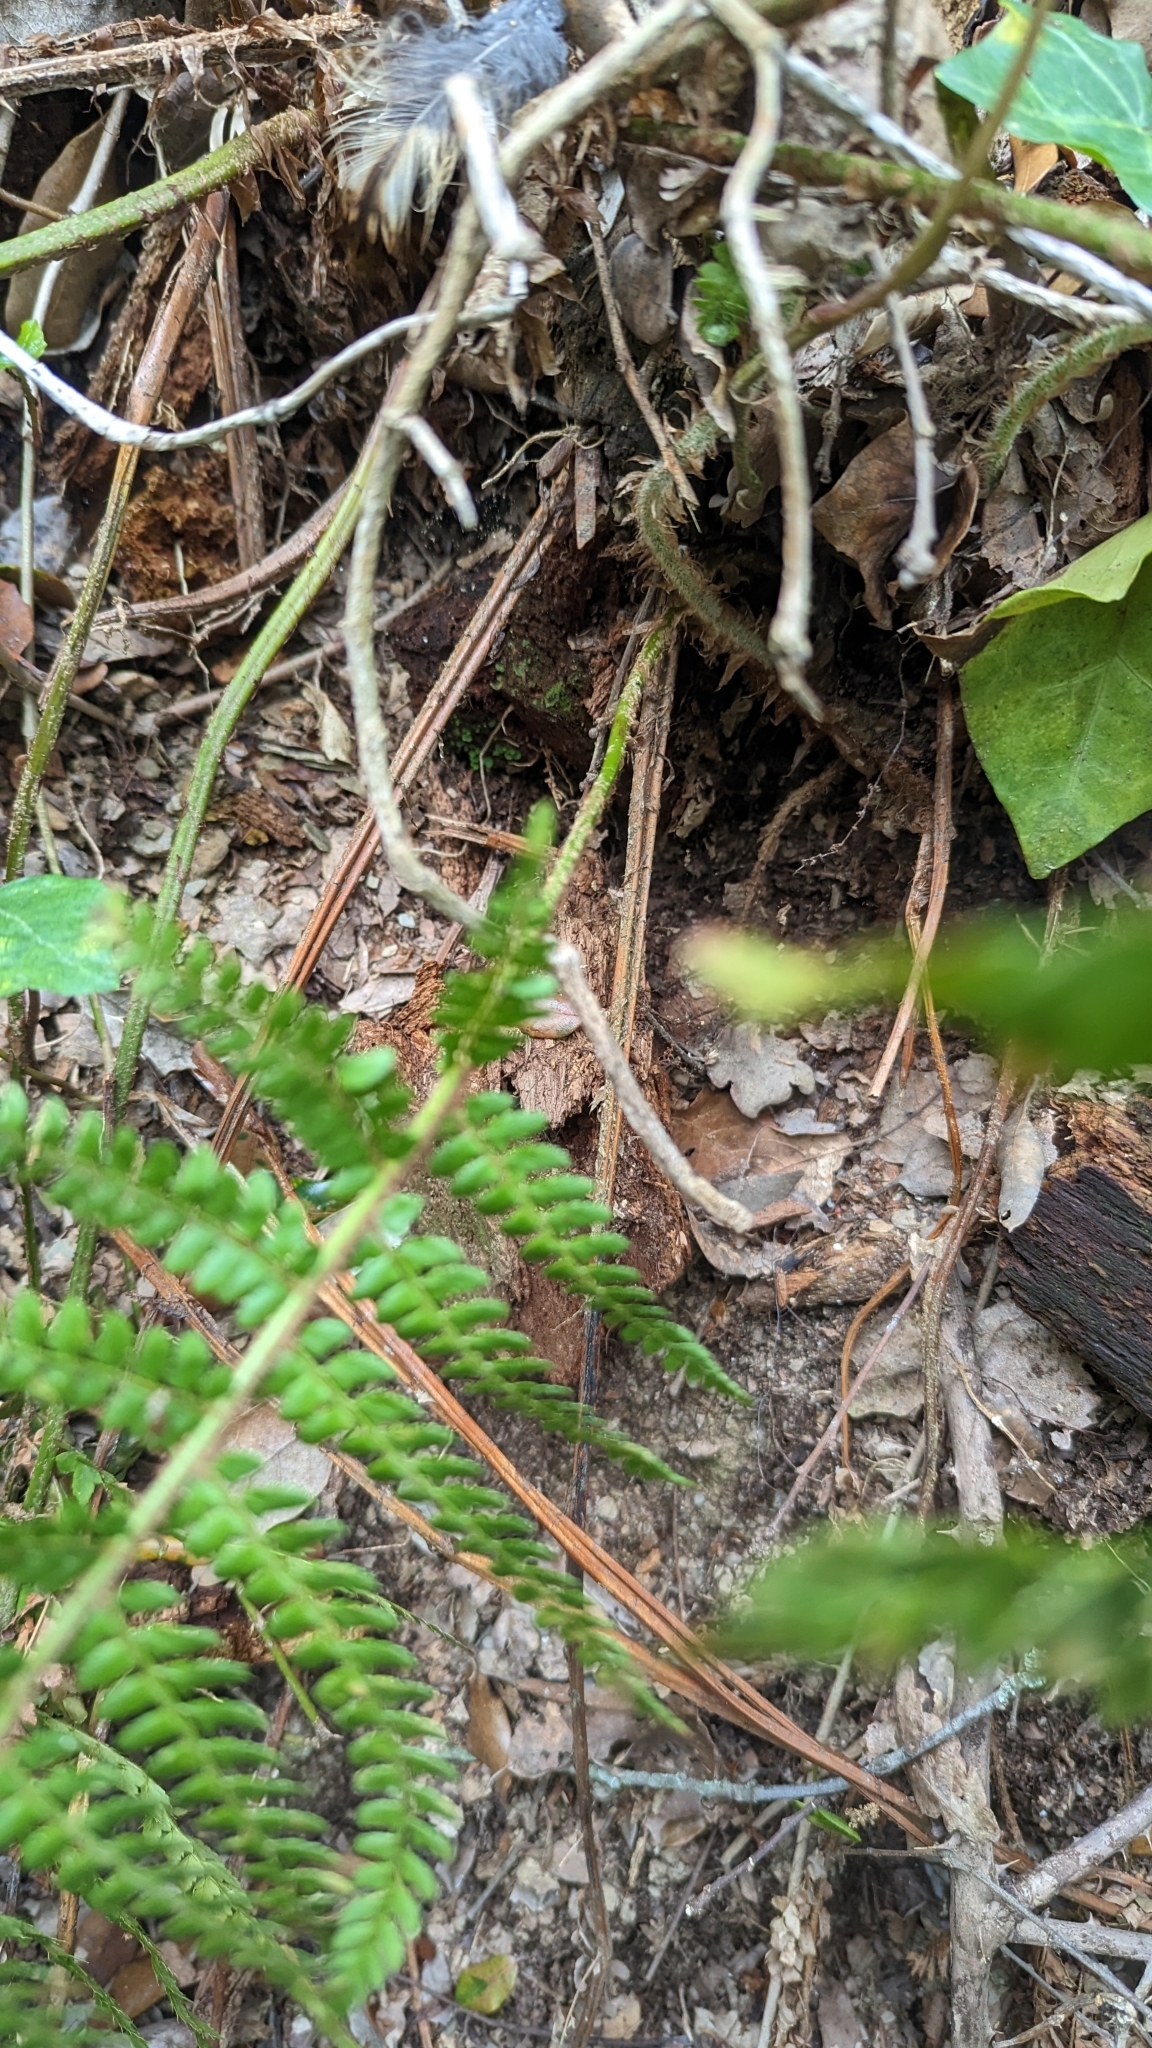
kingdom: Plantae
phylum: Tracheophyta
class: Polypodiopsida
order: Polypodiales
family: Dryopteridaceae
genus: Polystichum
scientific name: Polystichum setiferum
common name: Soft shield-fern
